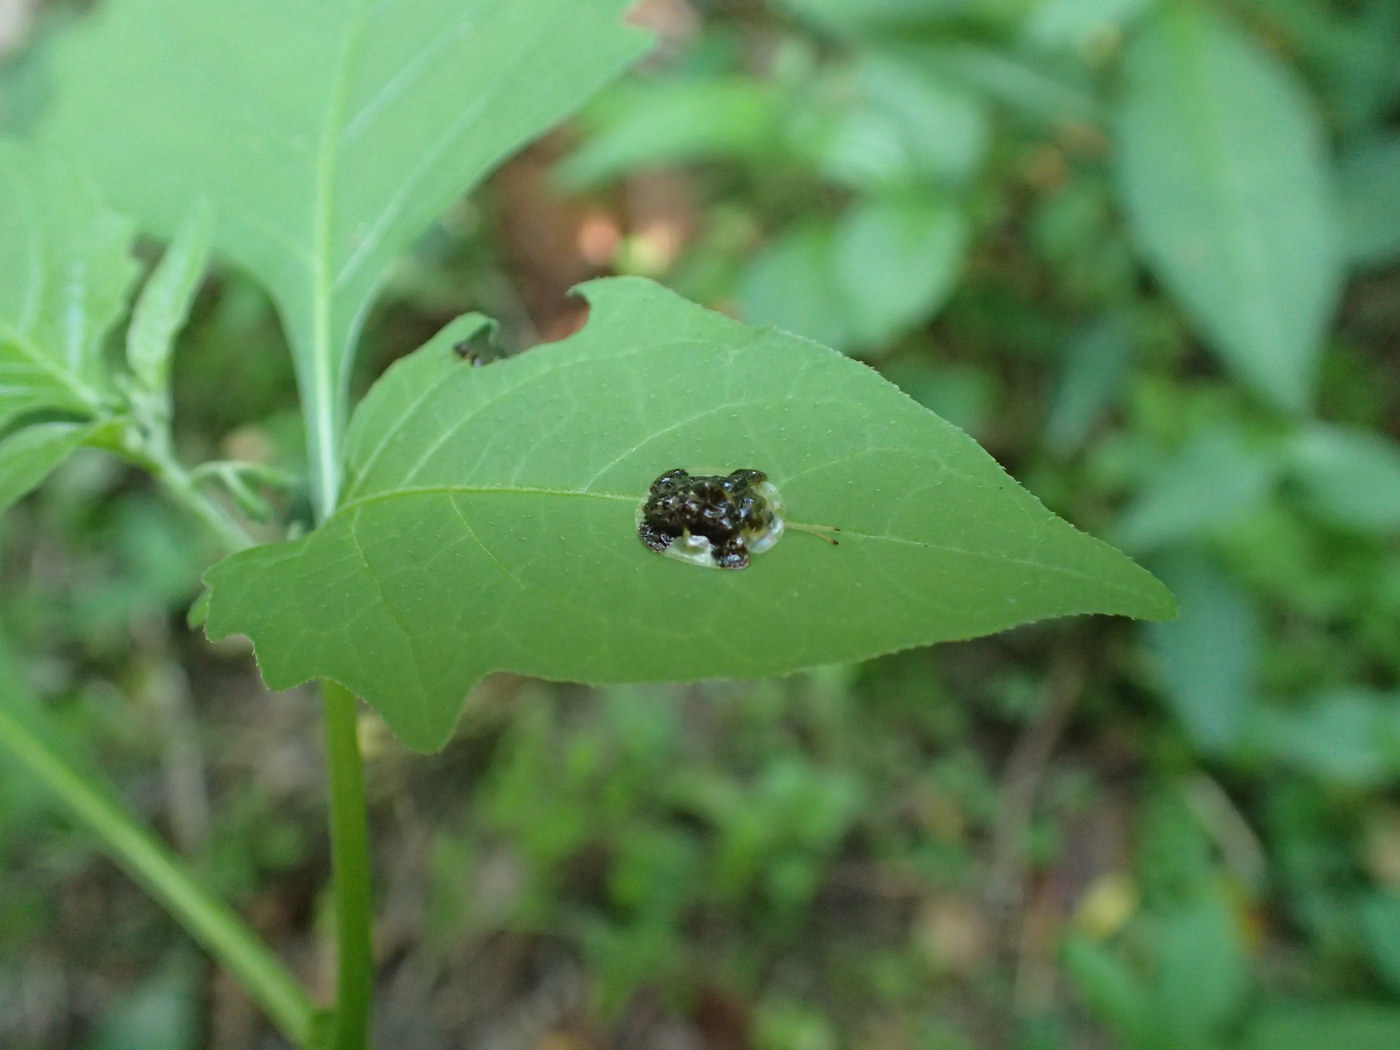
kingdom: Animalia
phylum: Arthropoda
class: Insecta
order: Coleoptera
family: Chrysomelidae
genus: Helocassis
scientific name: Helocassis clavata
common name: Clavate tortoise beetle
